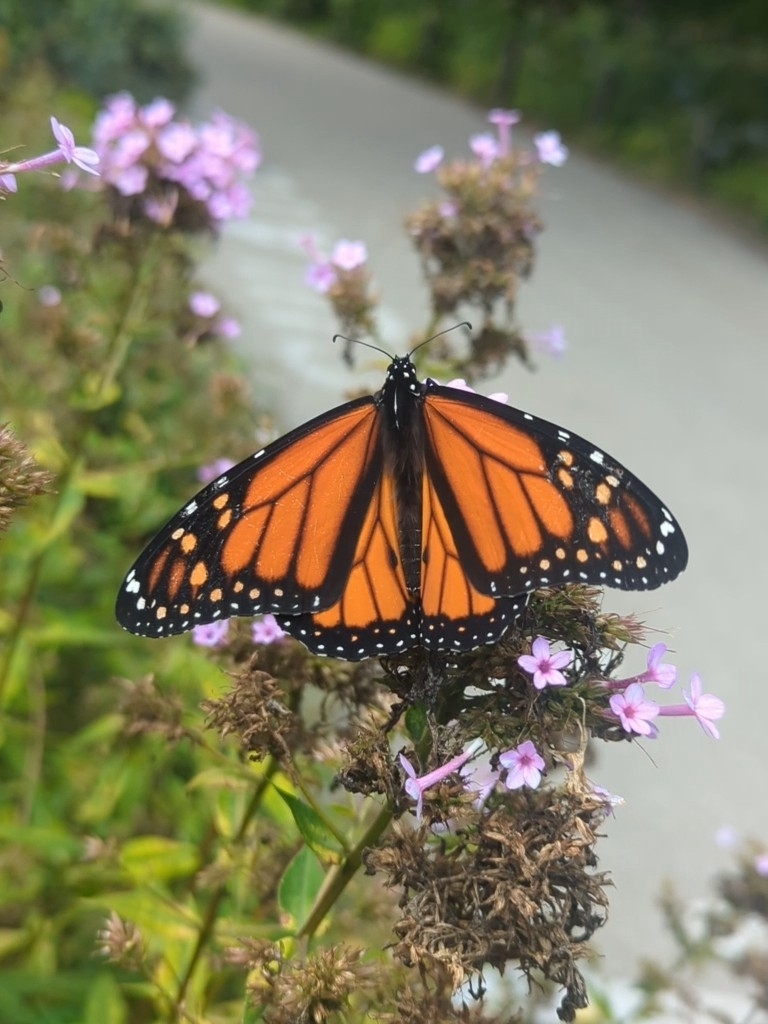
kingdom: Animalia
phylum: Arthropoda
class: Insecta
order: Lepidoptera
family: Nymphalidae
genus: Danaus
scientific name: Danaus plexippus
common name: Monarch
